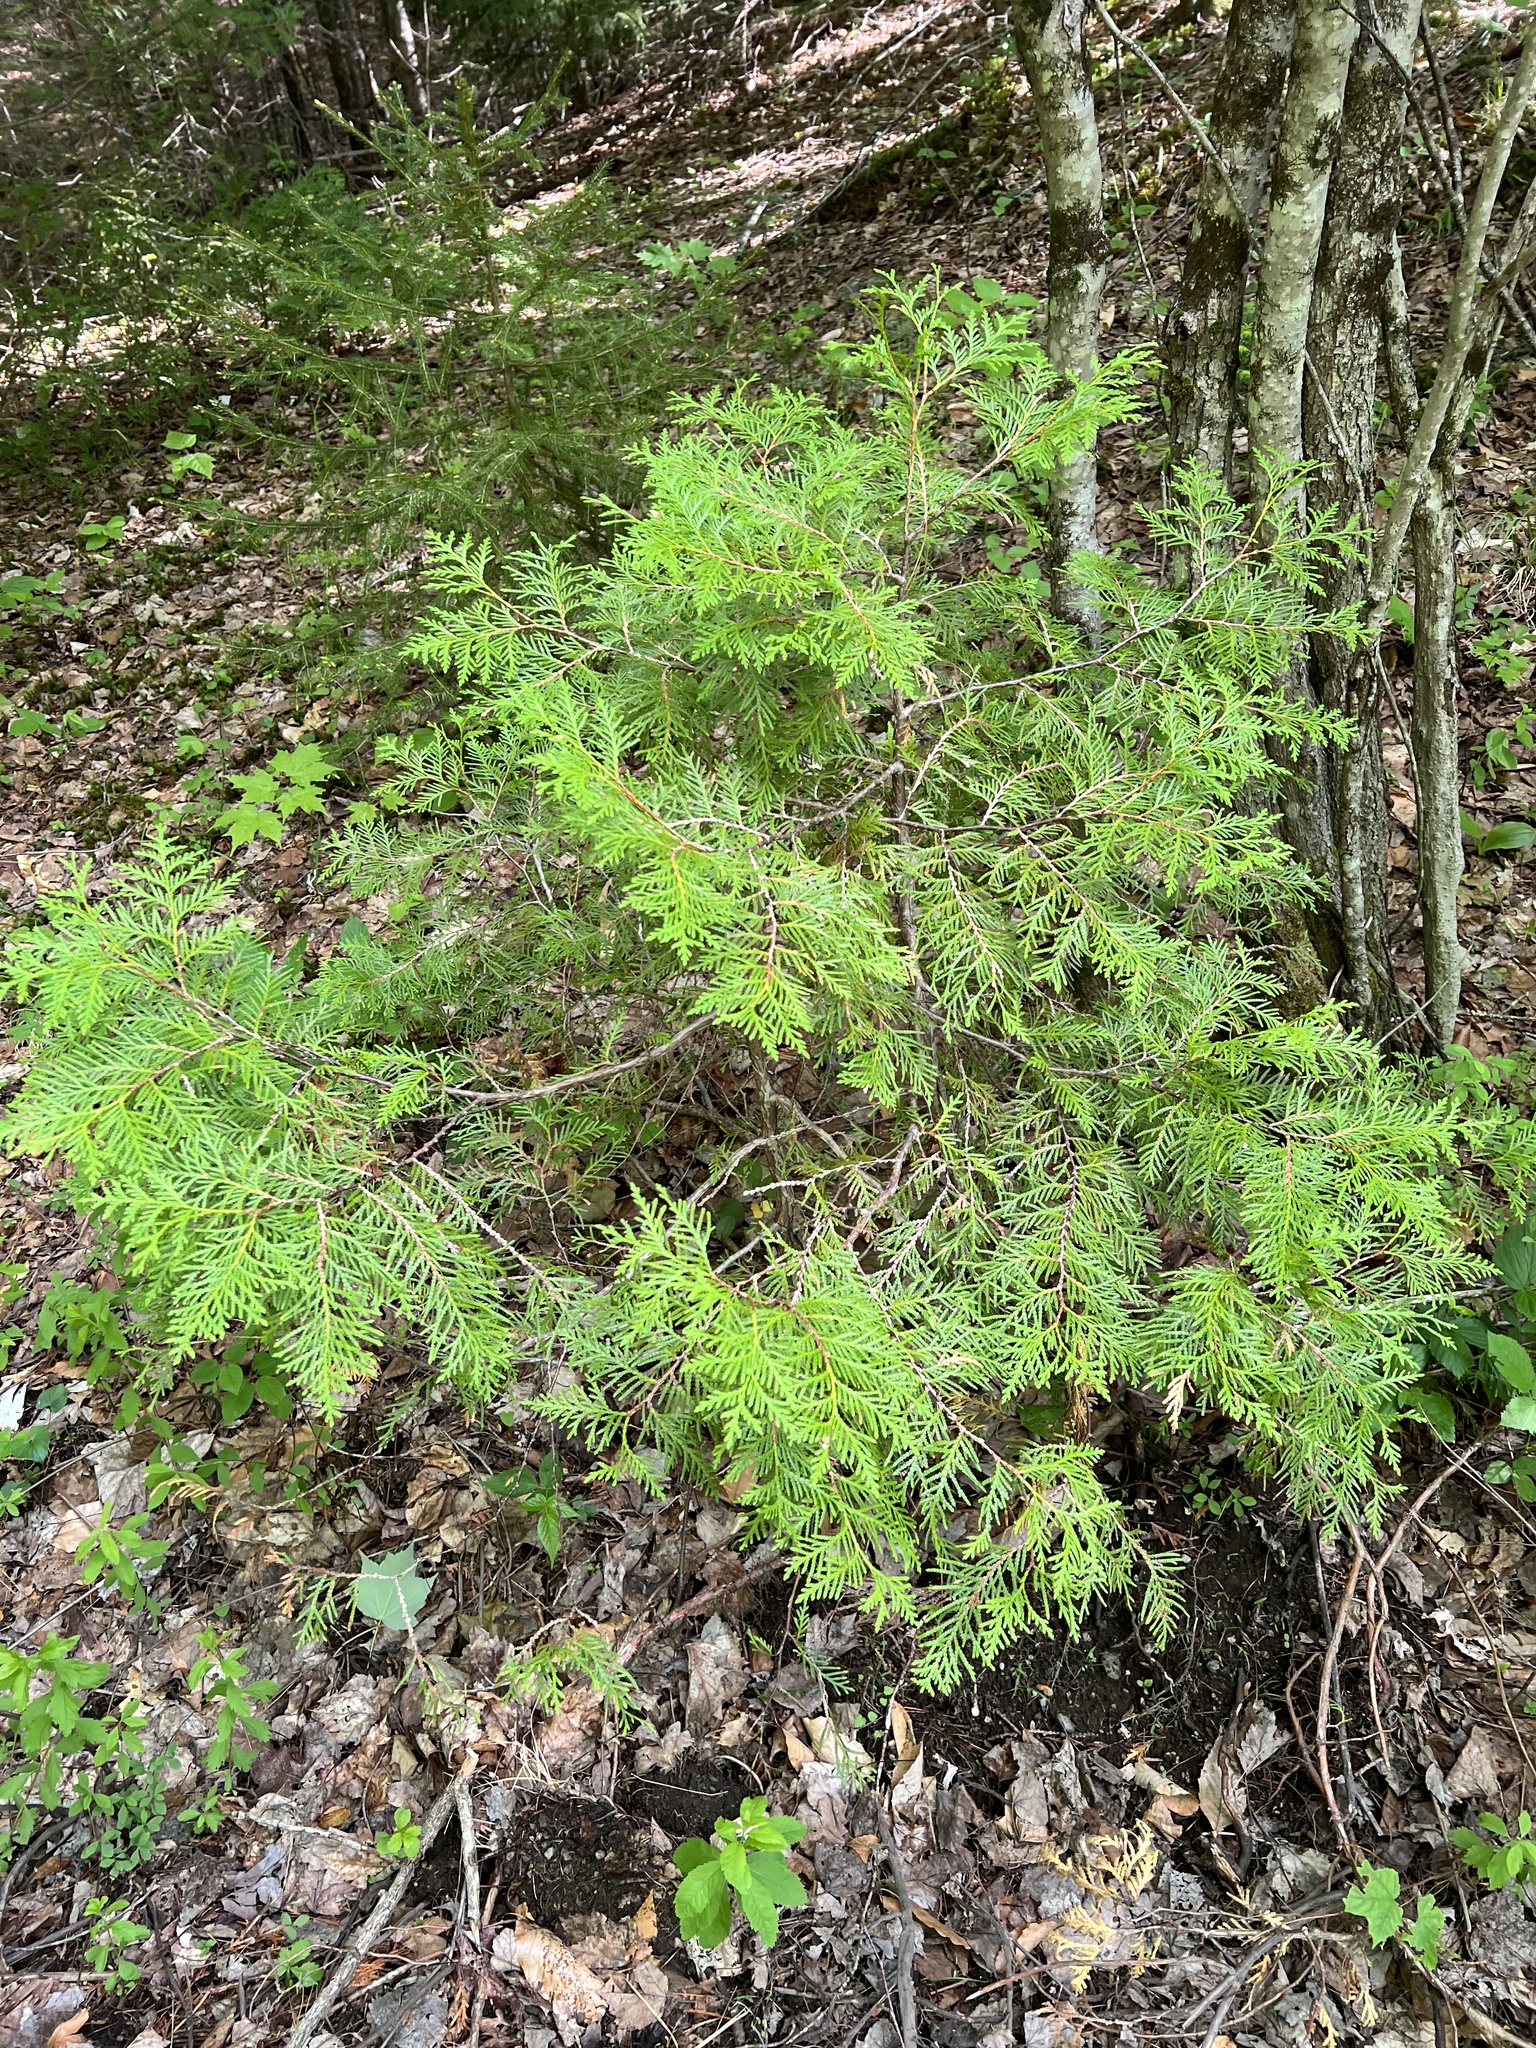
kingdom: Plantae
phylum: Tracheophyta
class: Pinopsida
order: Pinales
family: Cupressaceae
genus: Thuja
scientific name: Thuja occidentalis
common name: Northern white-cedar
